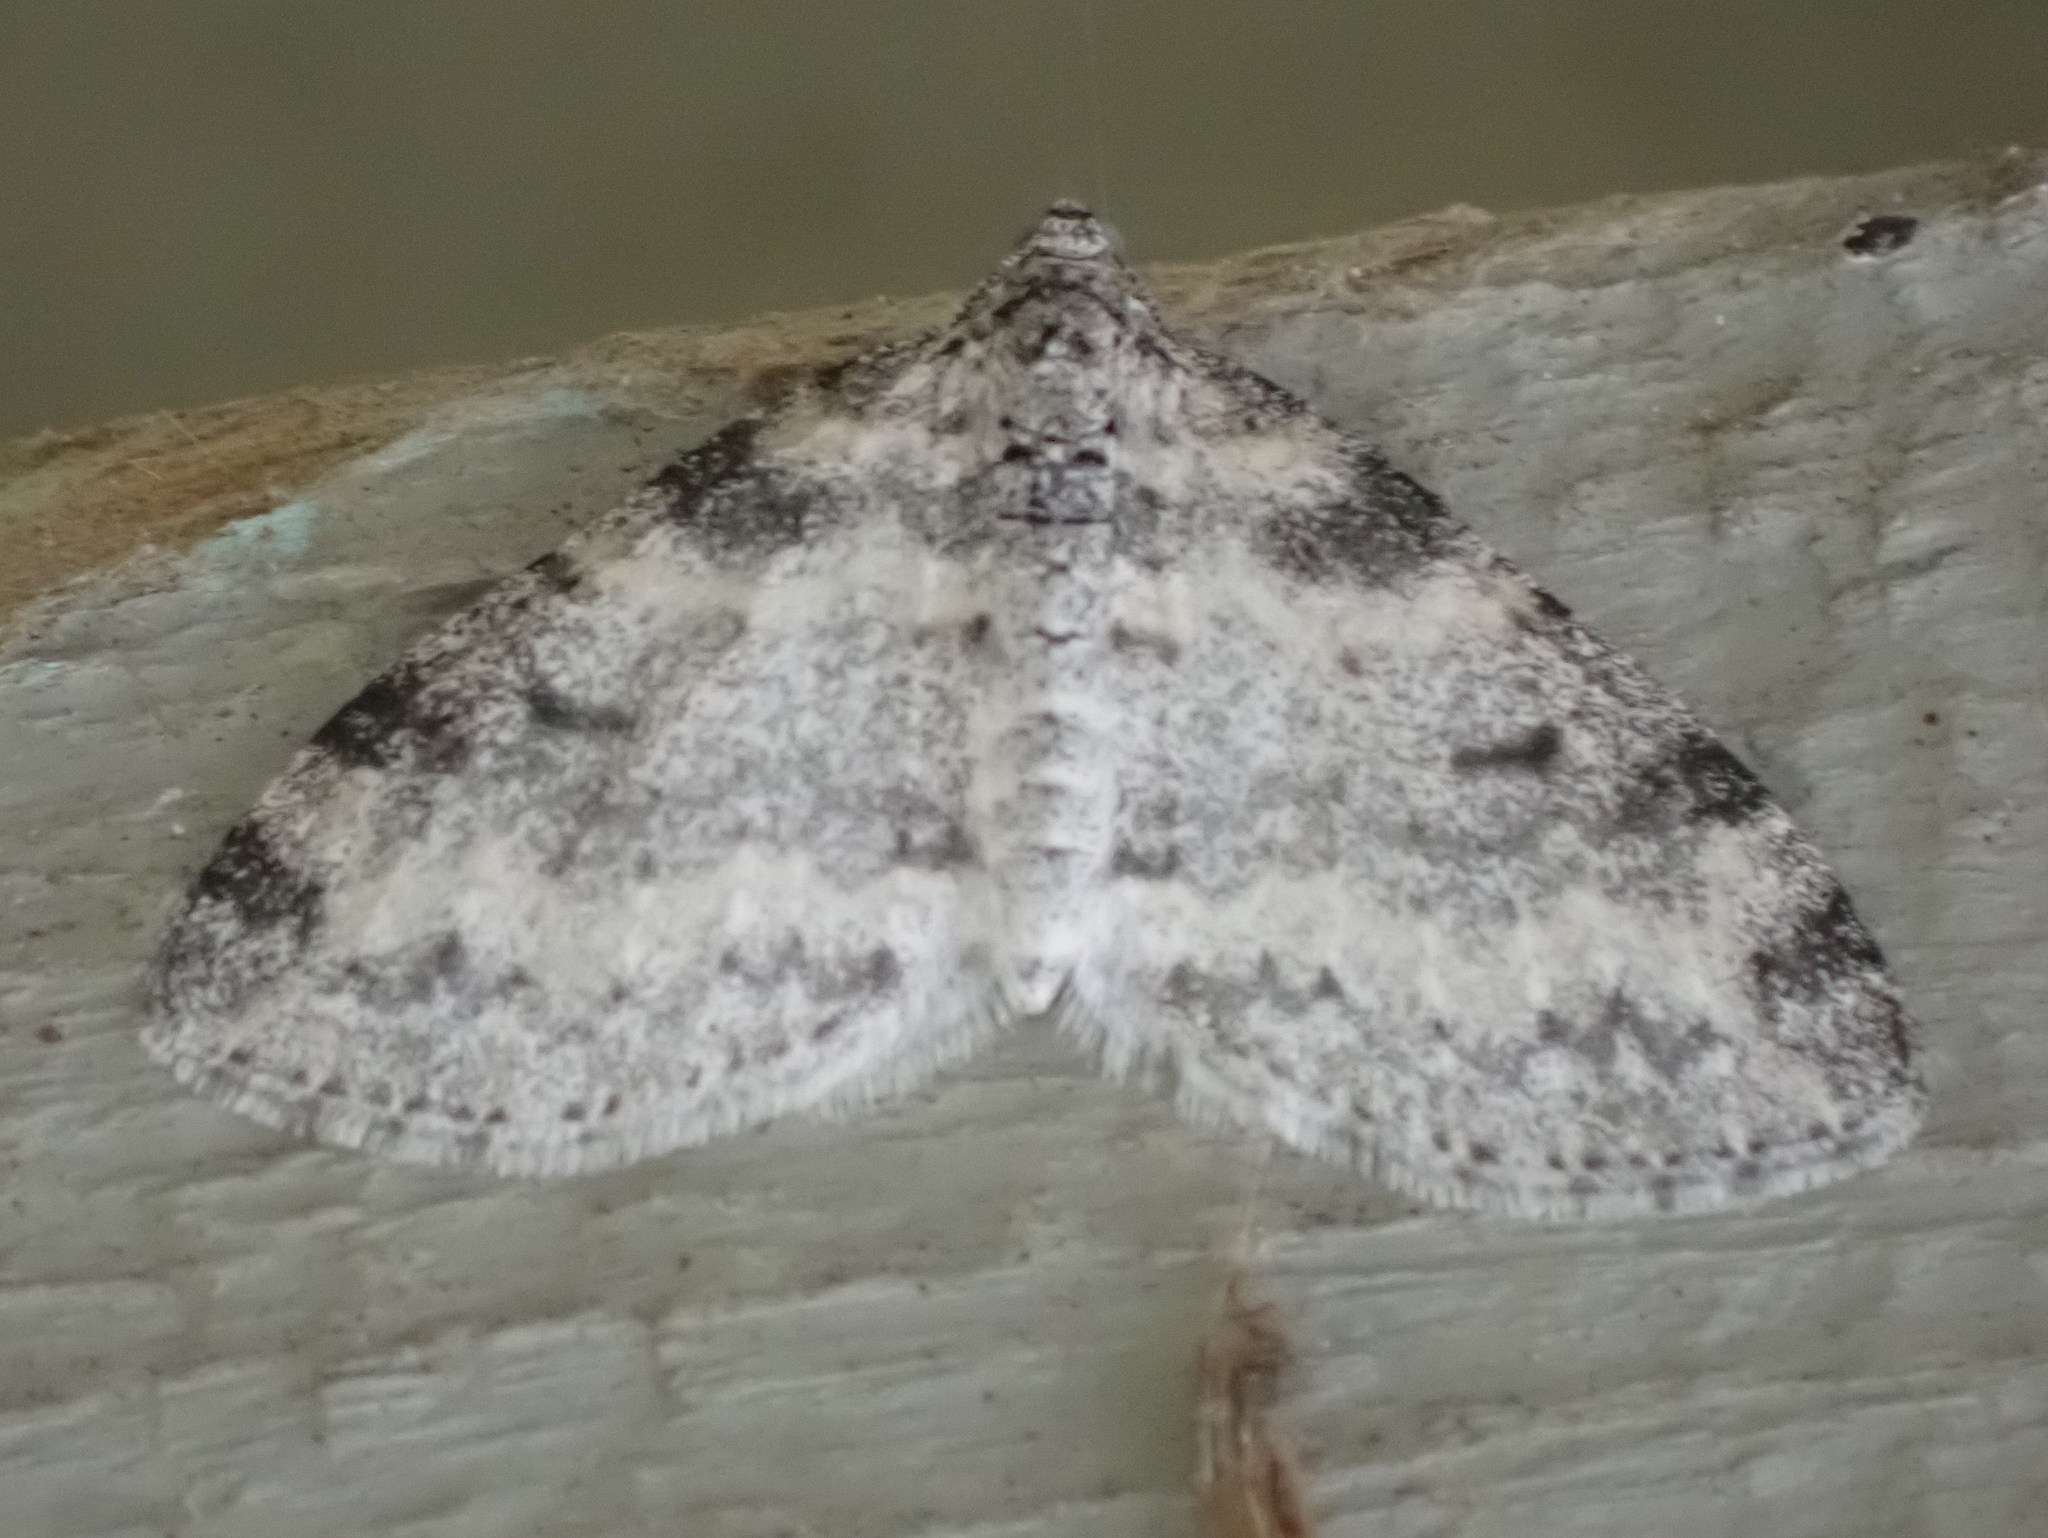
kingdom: Animalia
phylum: Arthropoda
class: Insecta
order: Lepidoptera
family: Geometridae
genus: Lobophora
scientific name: Lobophora nivigerata
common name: Powdered bigwing
